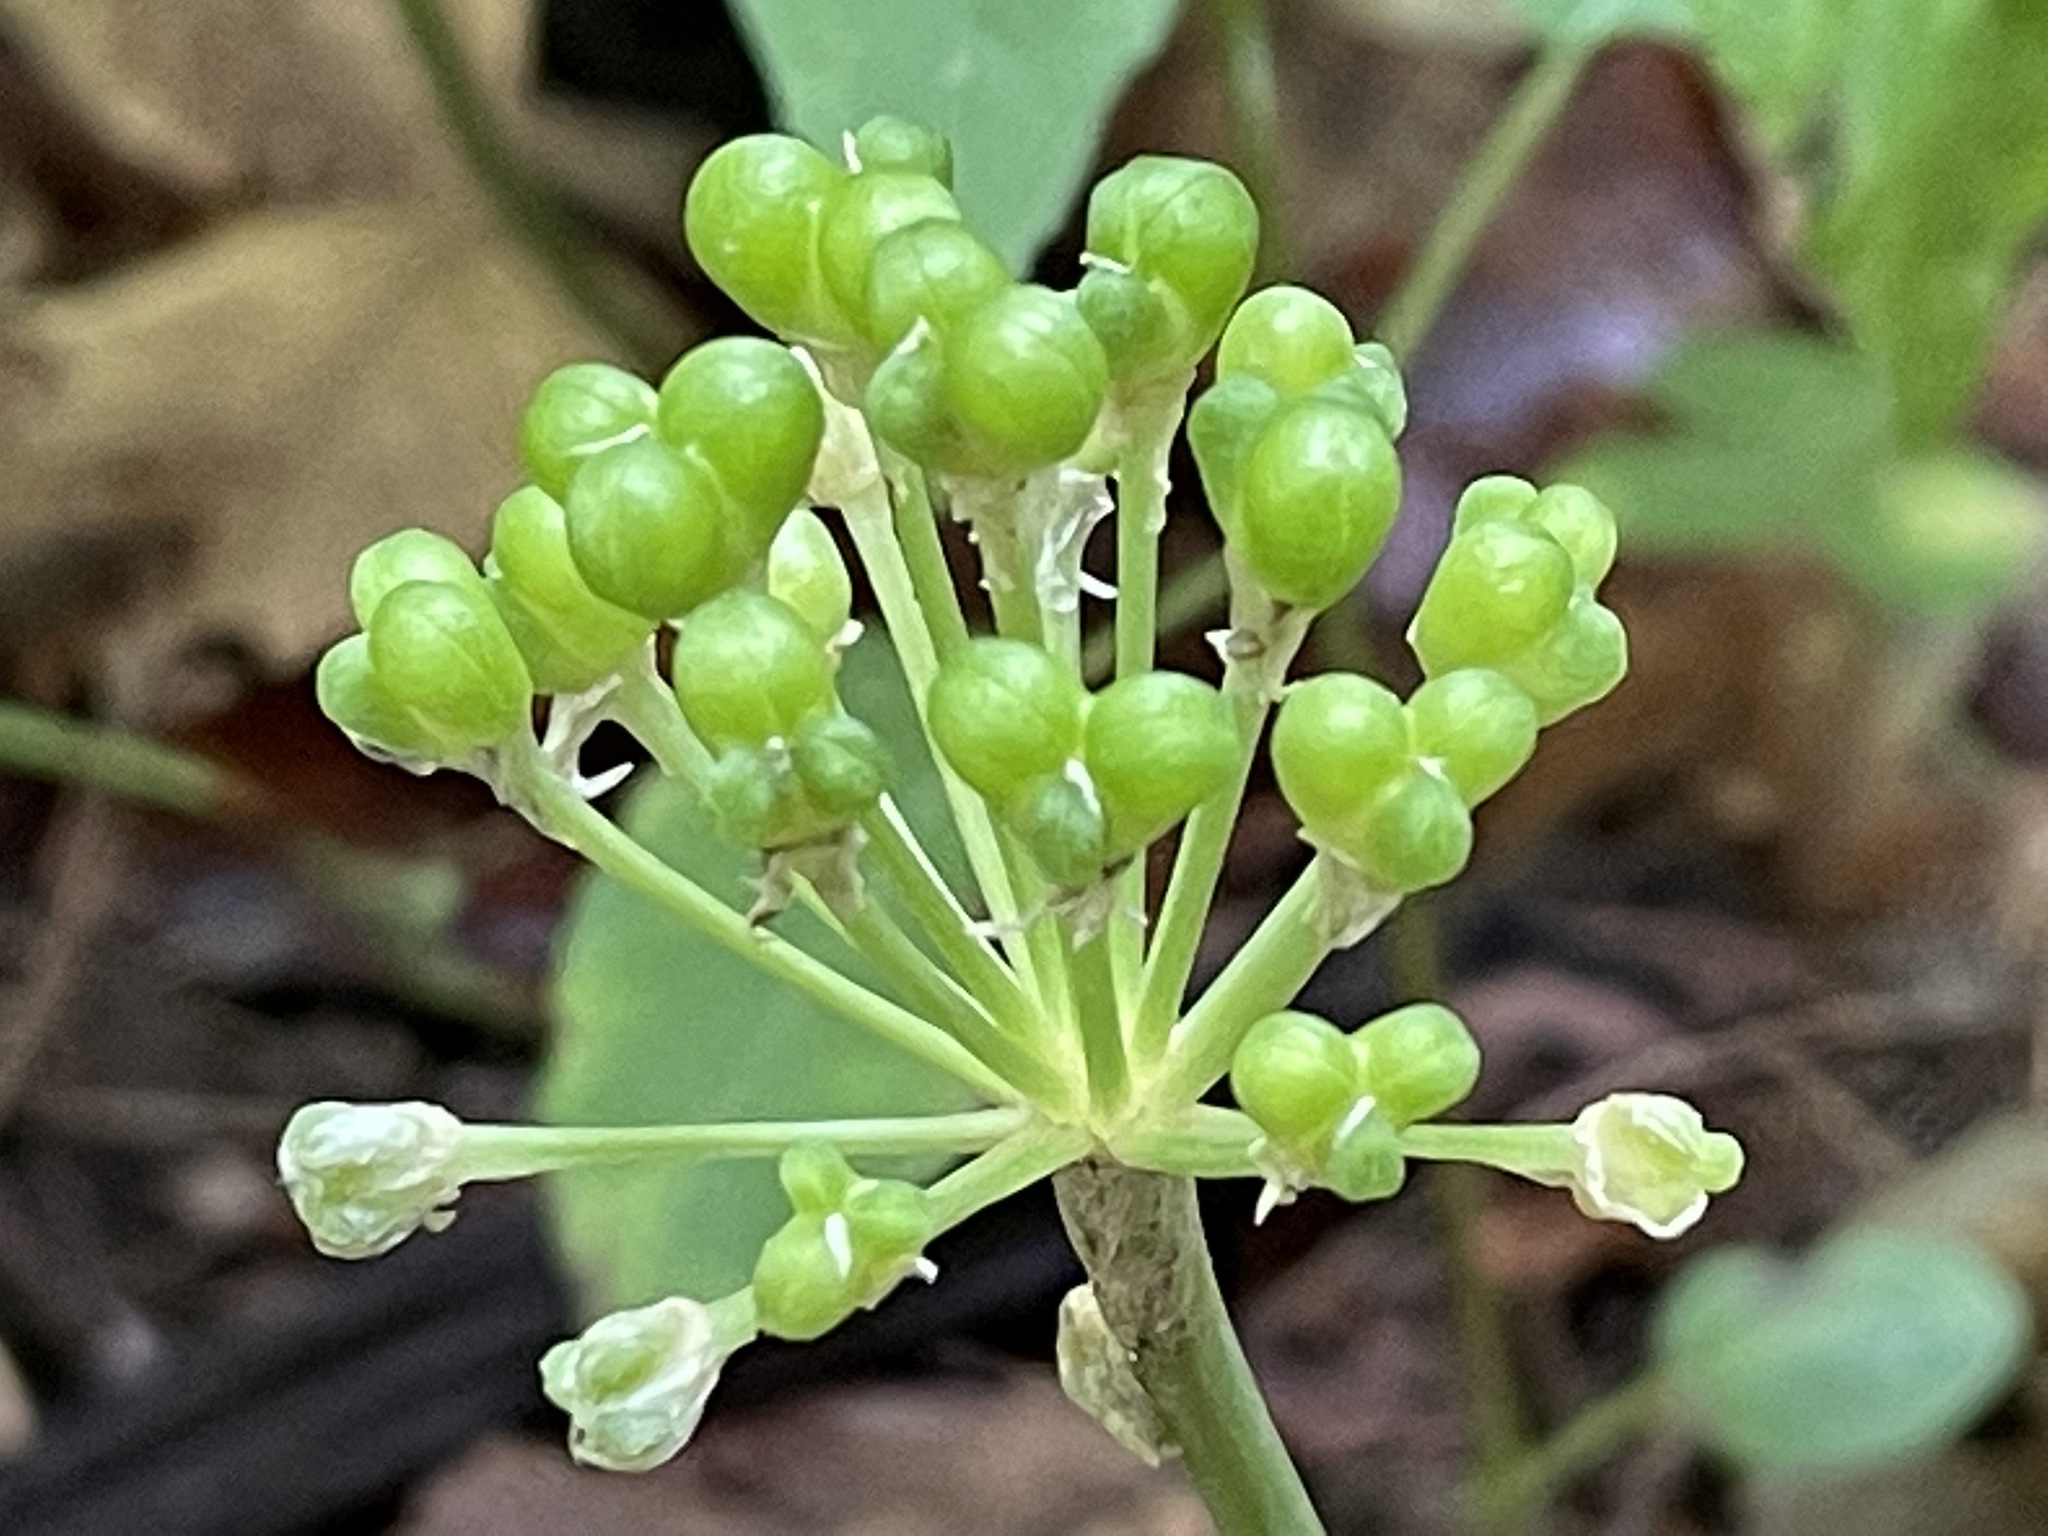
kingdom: Plantae
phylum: Tracheophyta
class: Liliopsida
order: Asparagales
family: Amaryllidaceae
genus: Allium
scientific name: Allium tricoccum
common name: Ramp
